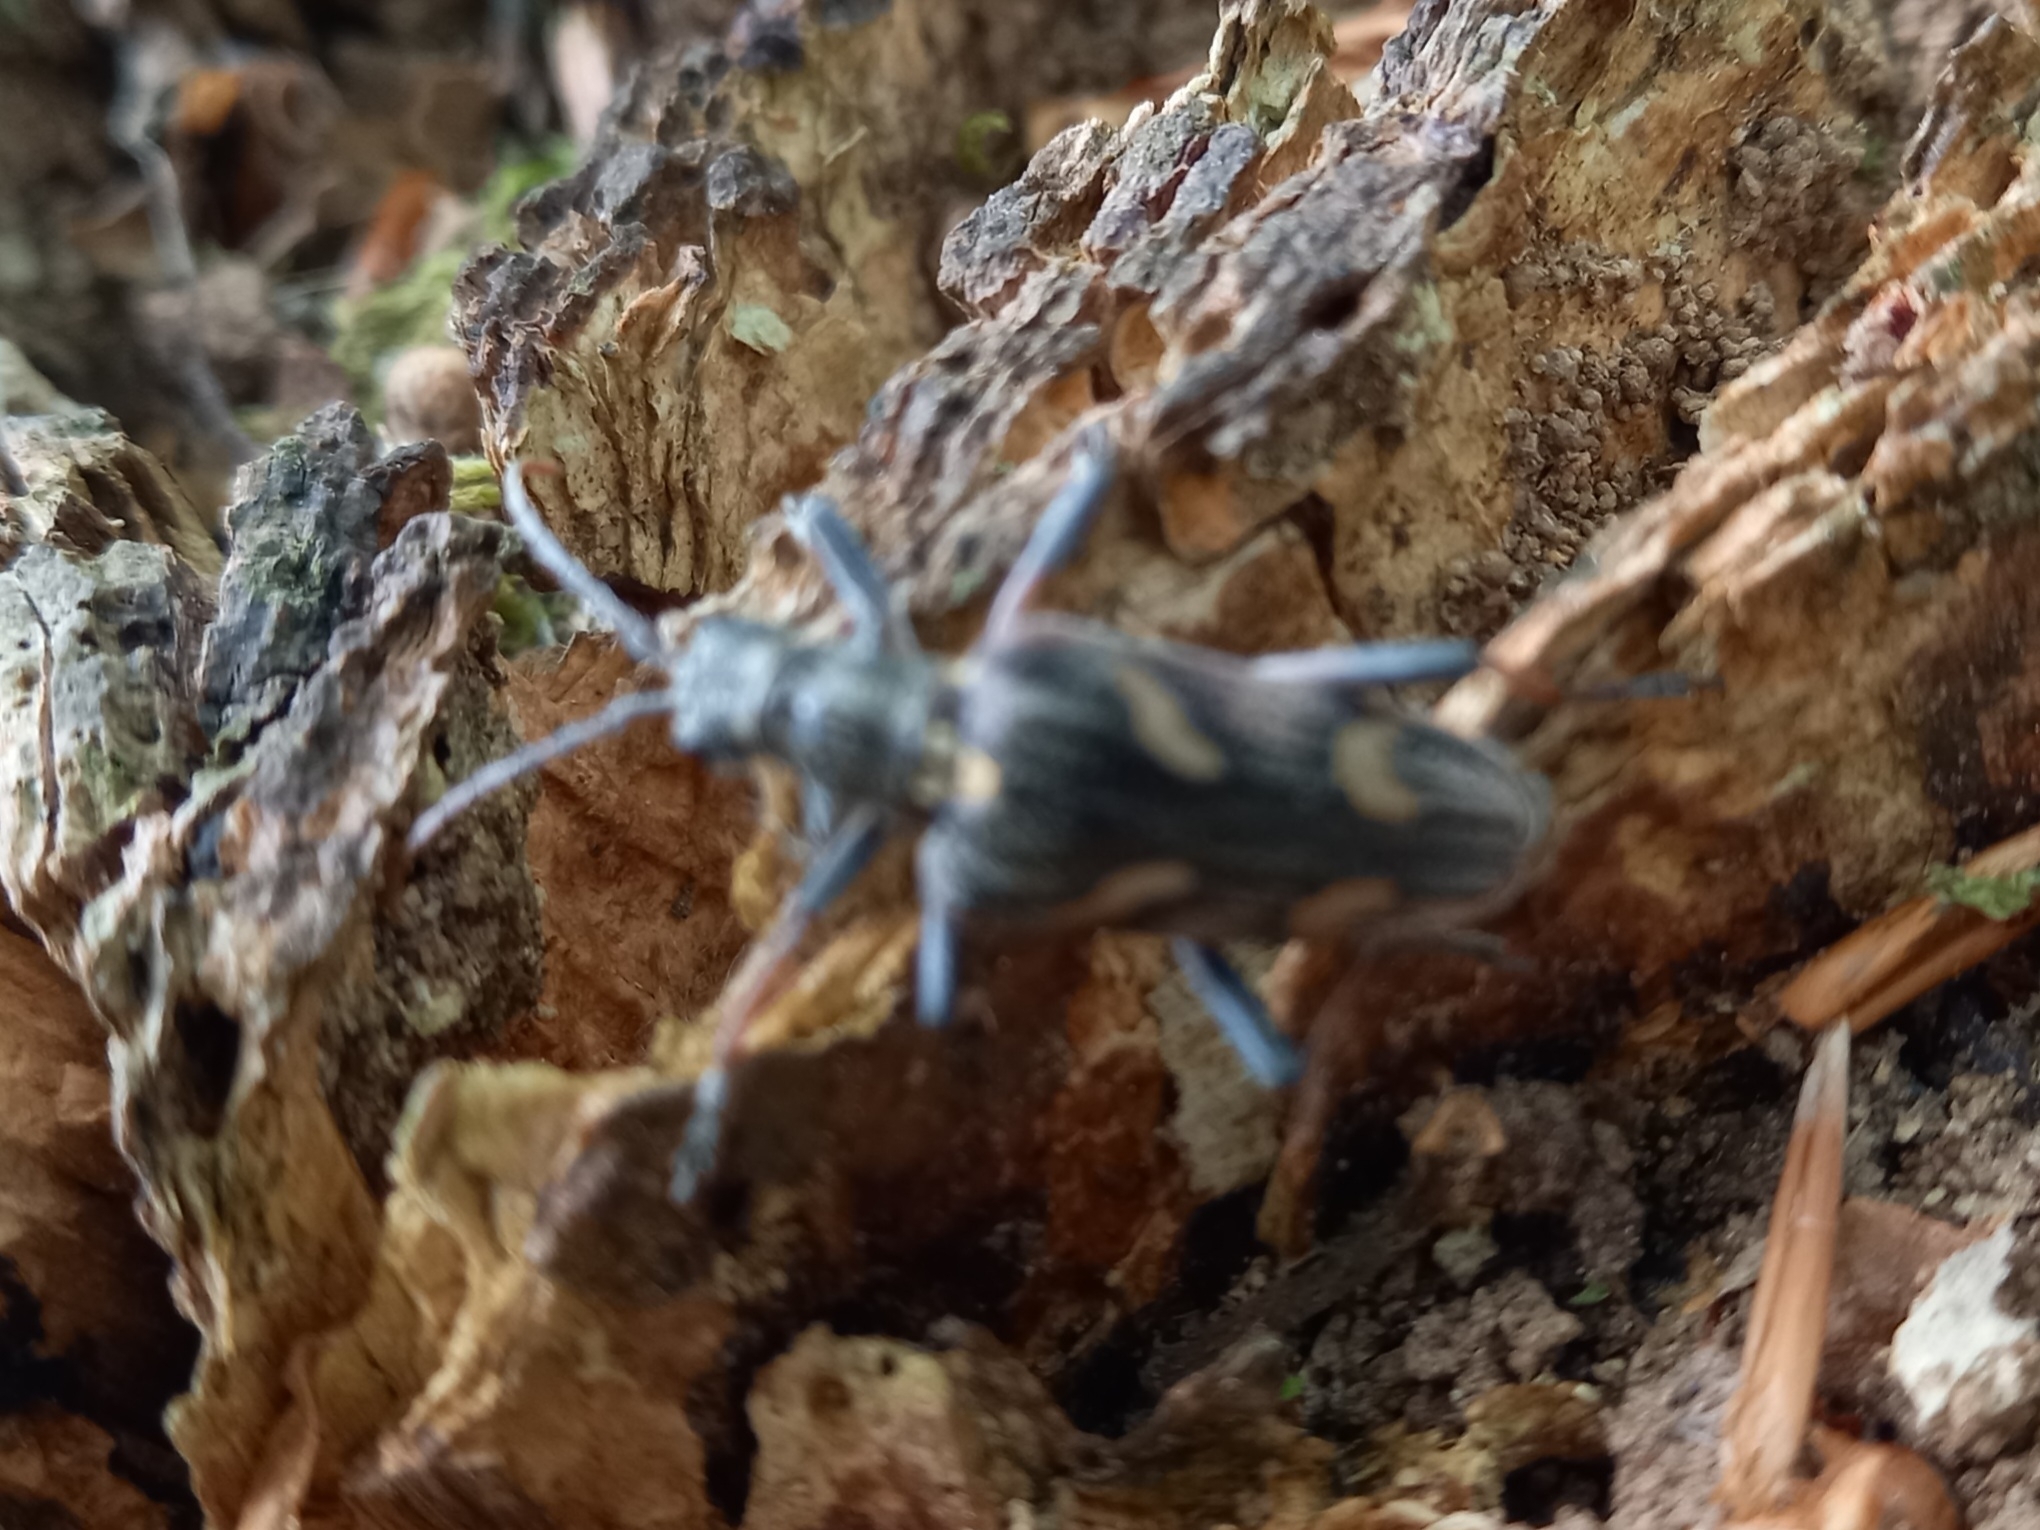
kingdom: Animalia
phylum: Arthropoda
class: Insecta
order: Coleoptera
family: Cerambycidae
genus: Rhagium
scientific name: Rhagium bifasciatum
